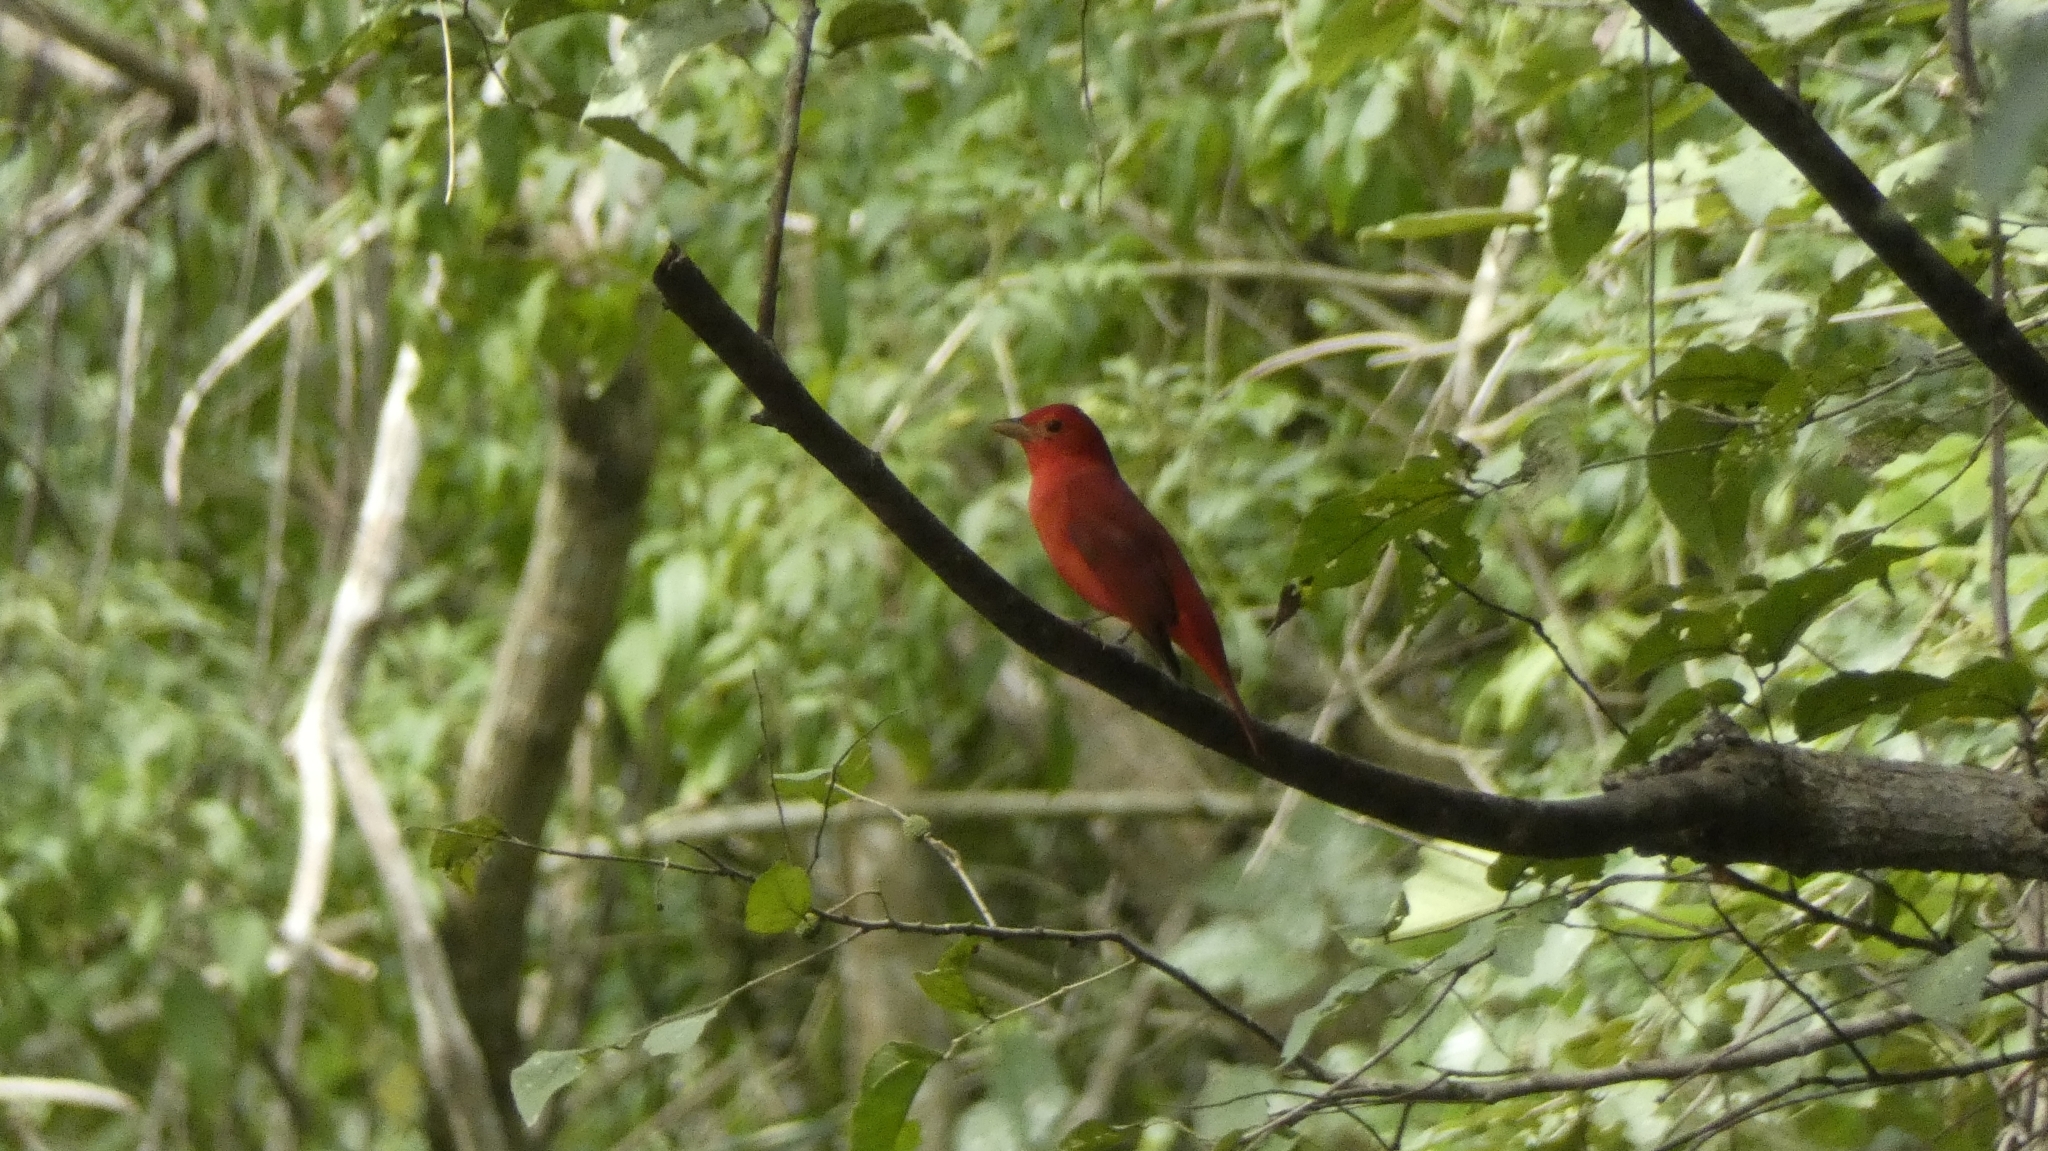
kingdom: Animalia
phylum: Chordata
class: Aves
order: Passeriformes
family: Cardinalidae
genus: Piranga
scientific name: Piranga rubra
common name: Summer tanager
